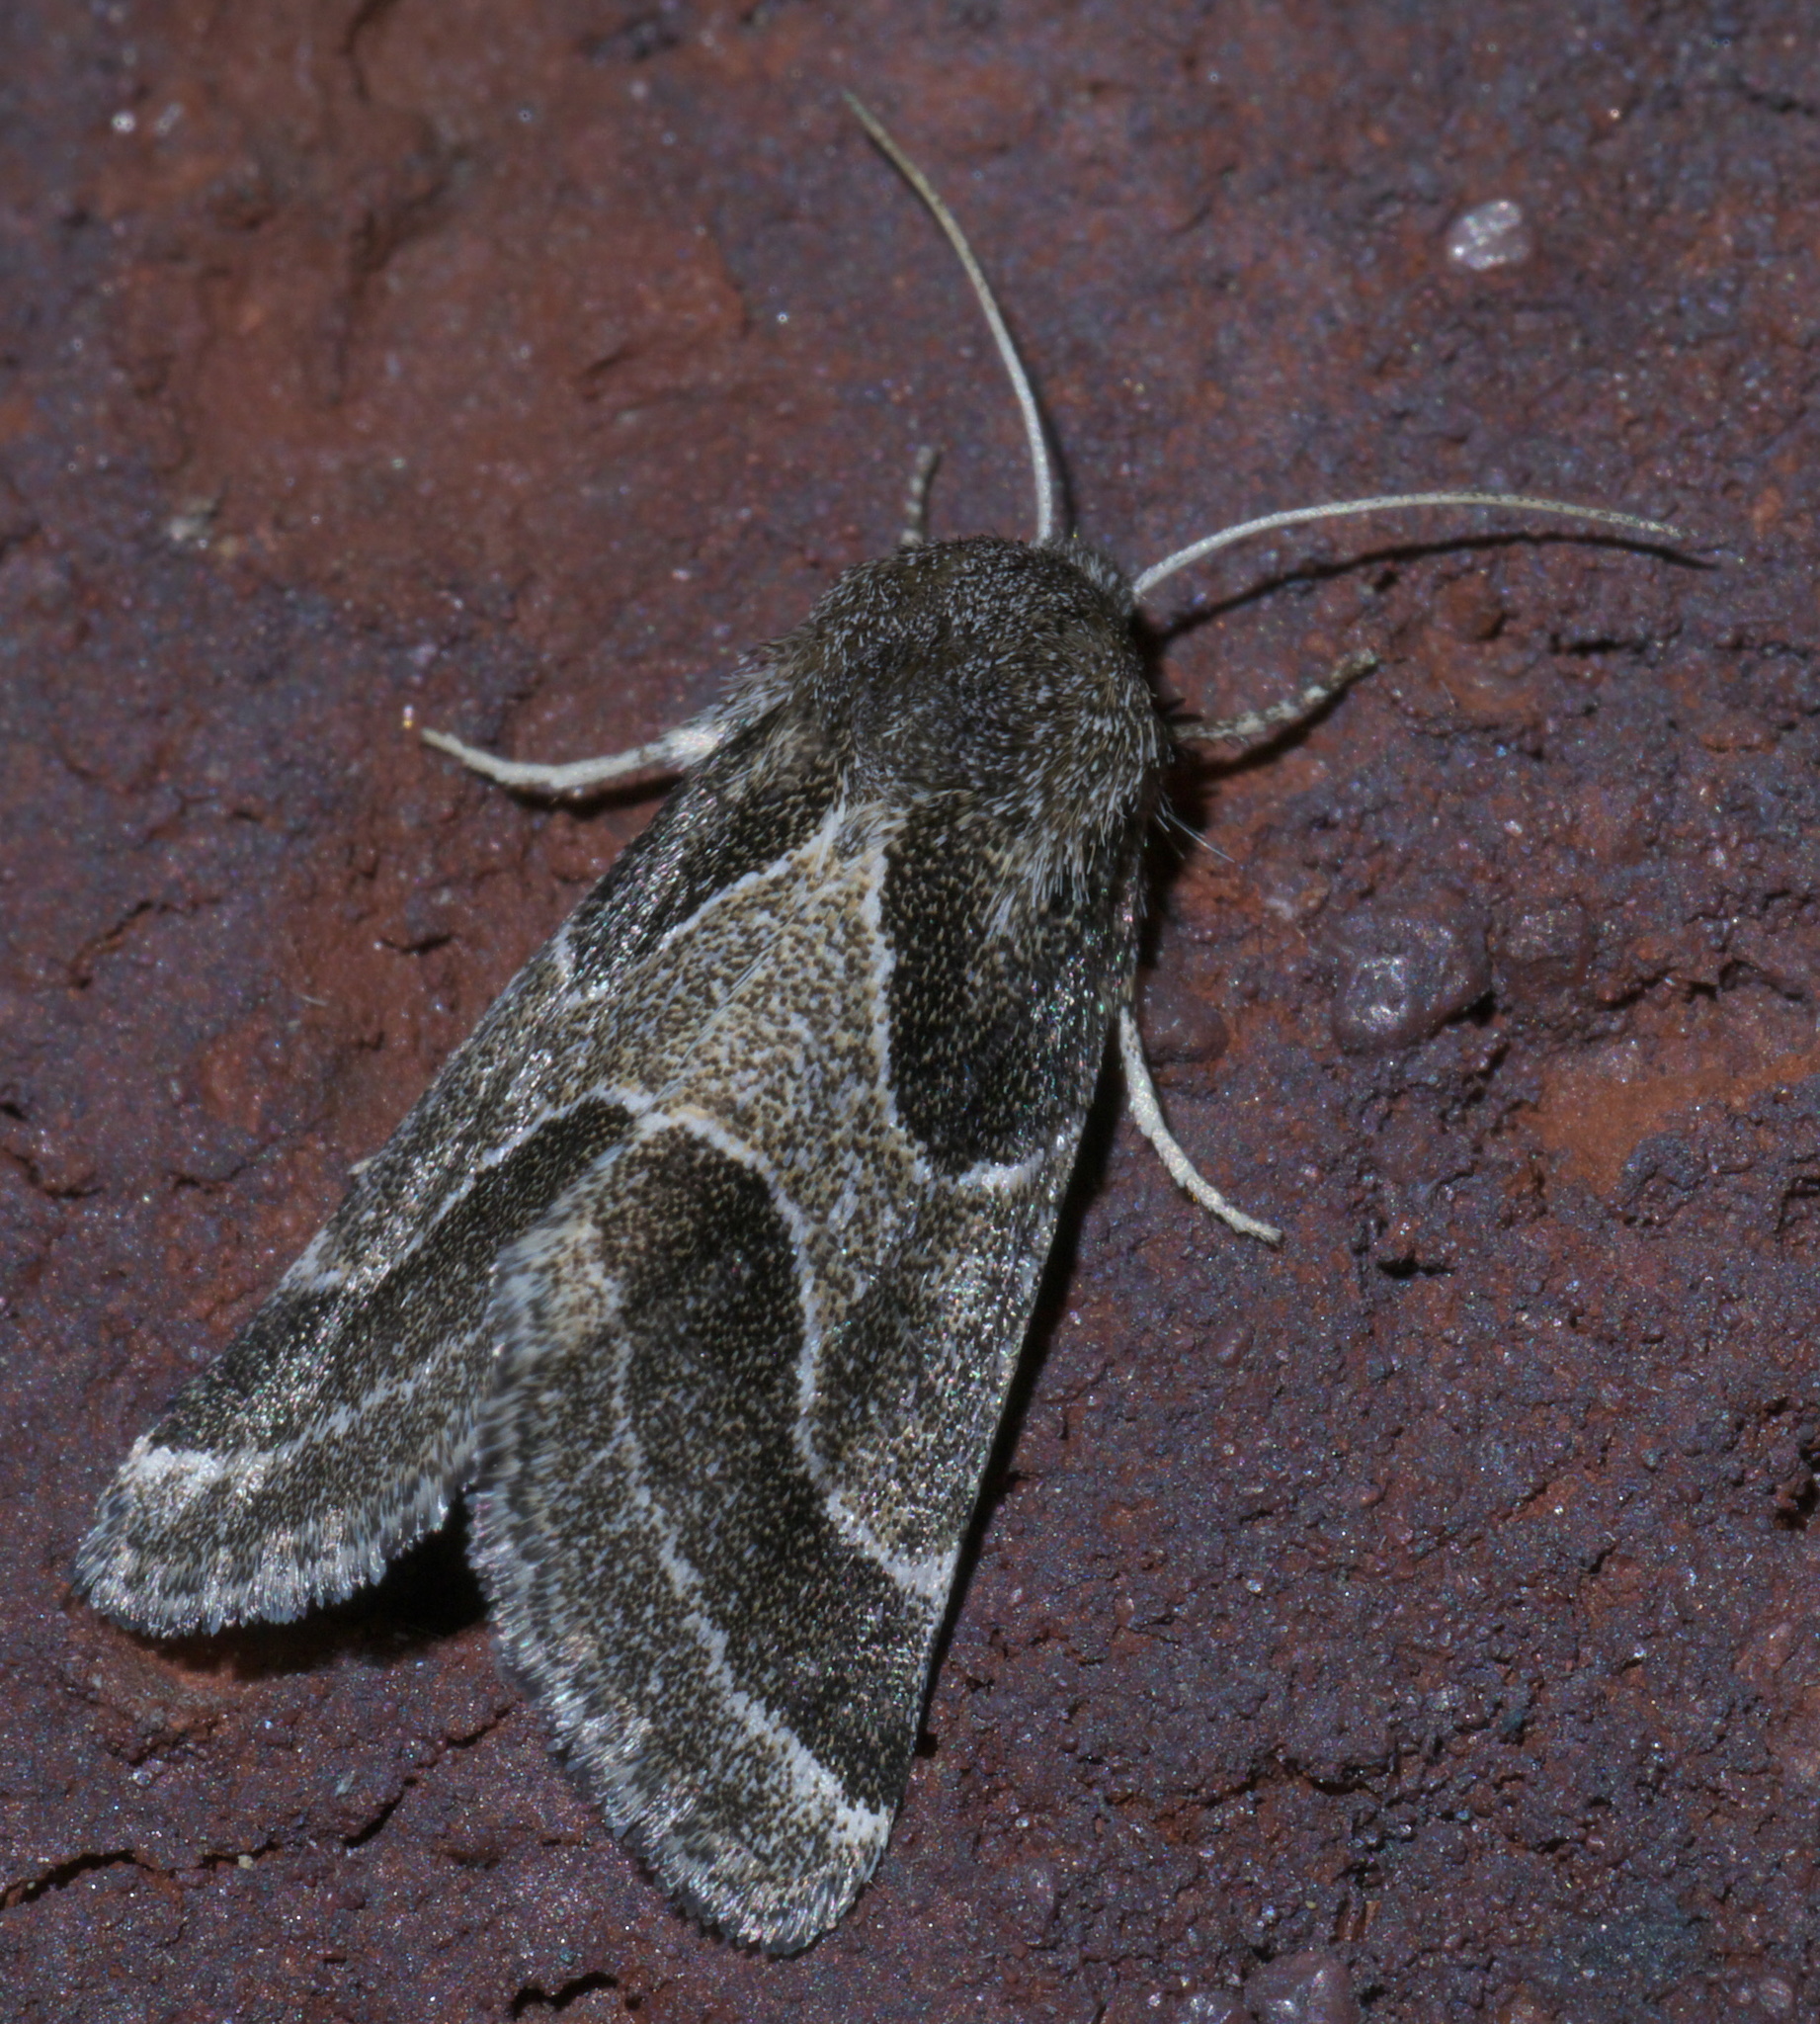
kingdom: Animalia
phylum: Arthropoda
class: Insecta
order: Lepidoptera
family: Noctuidae
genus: Schinia
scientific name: Schinia rivulosa
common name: Scarce meal-moth
